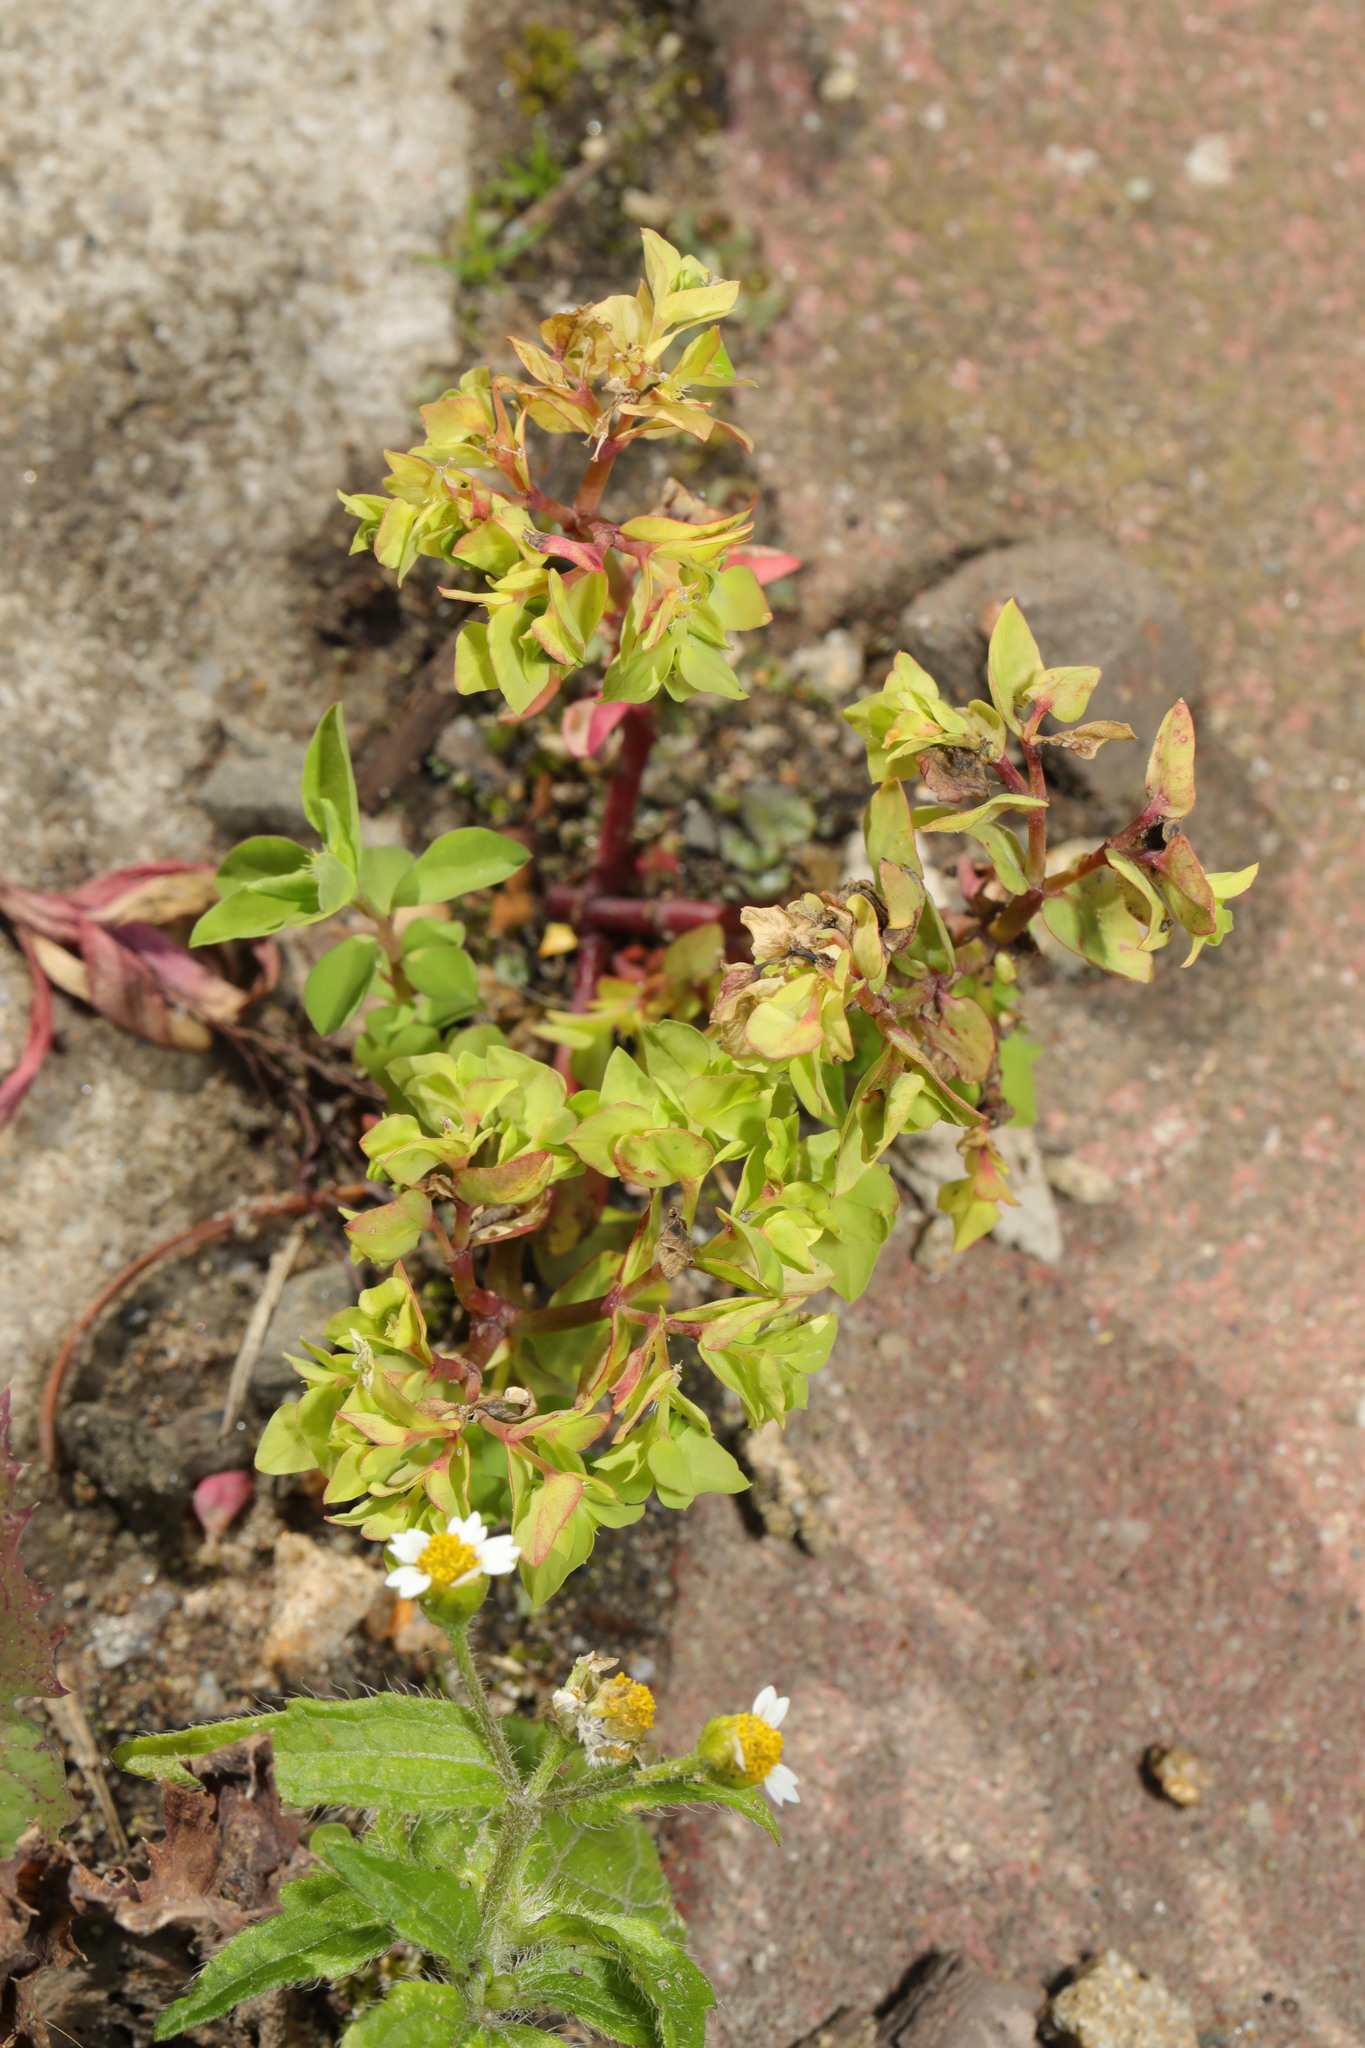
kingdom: Plantae
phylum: Tracheophyta
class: Magnoliopsida
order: Malpighiales
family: Euphorbiaceae
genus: Euphorbia
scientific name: Euphorbia peplus
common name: Petty spurge
